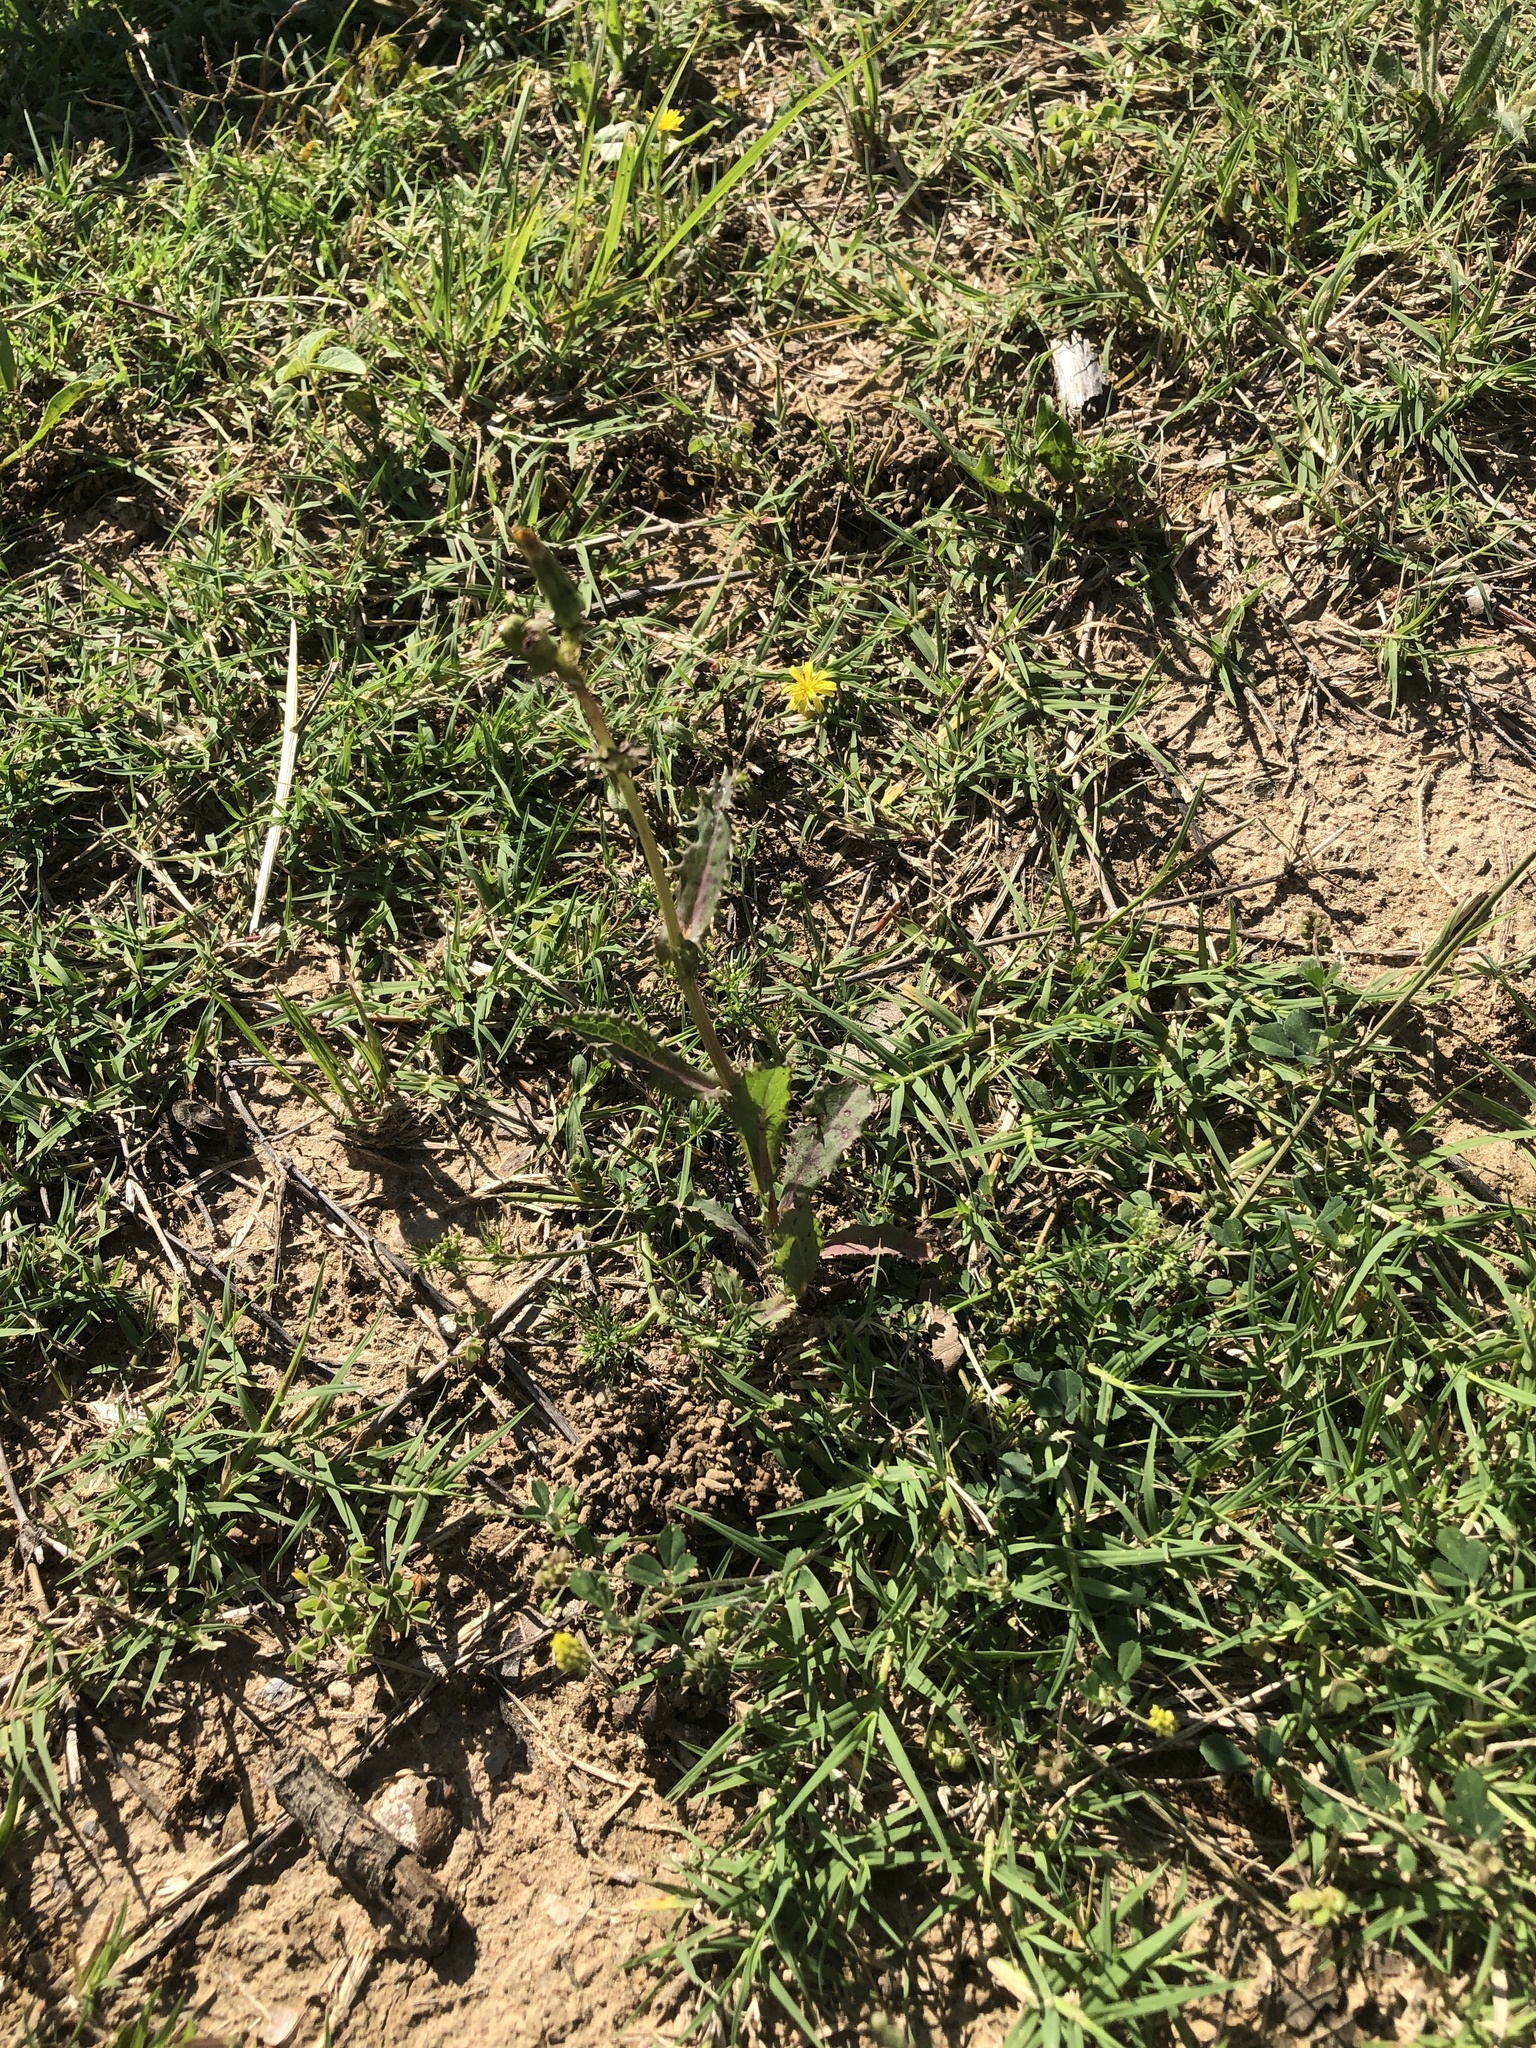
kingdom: Plantae
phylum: Tracheophyta
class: Magnoliopsida
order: Asterales
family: Asteraceae
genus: Sonchus
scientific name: Sonchus asper
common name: Prickly sow-thistle
